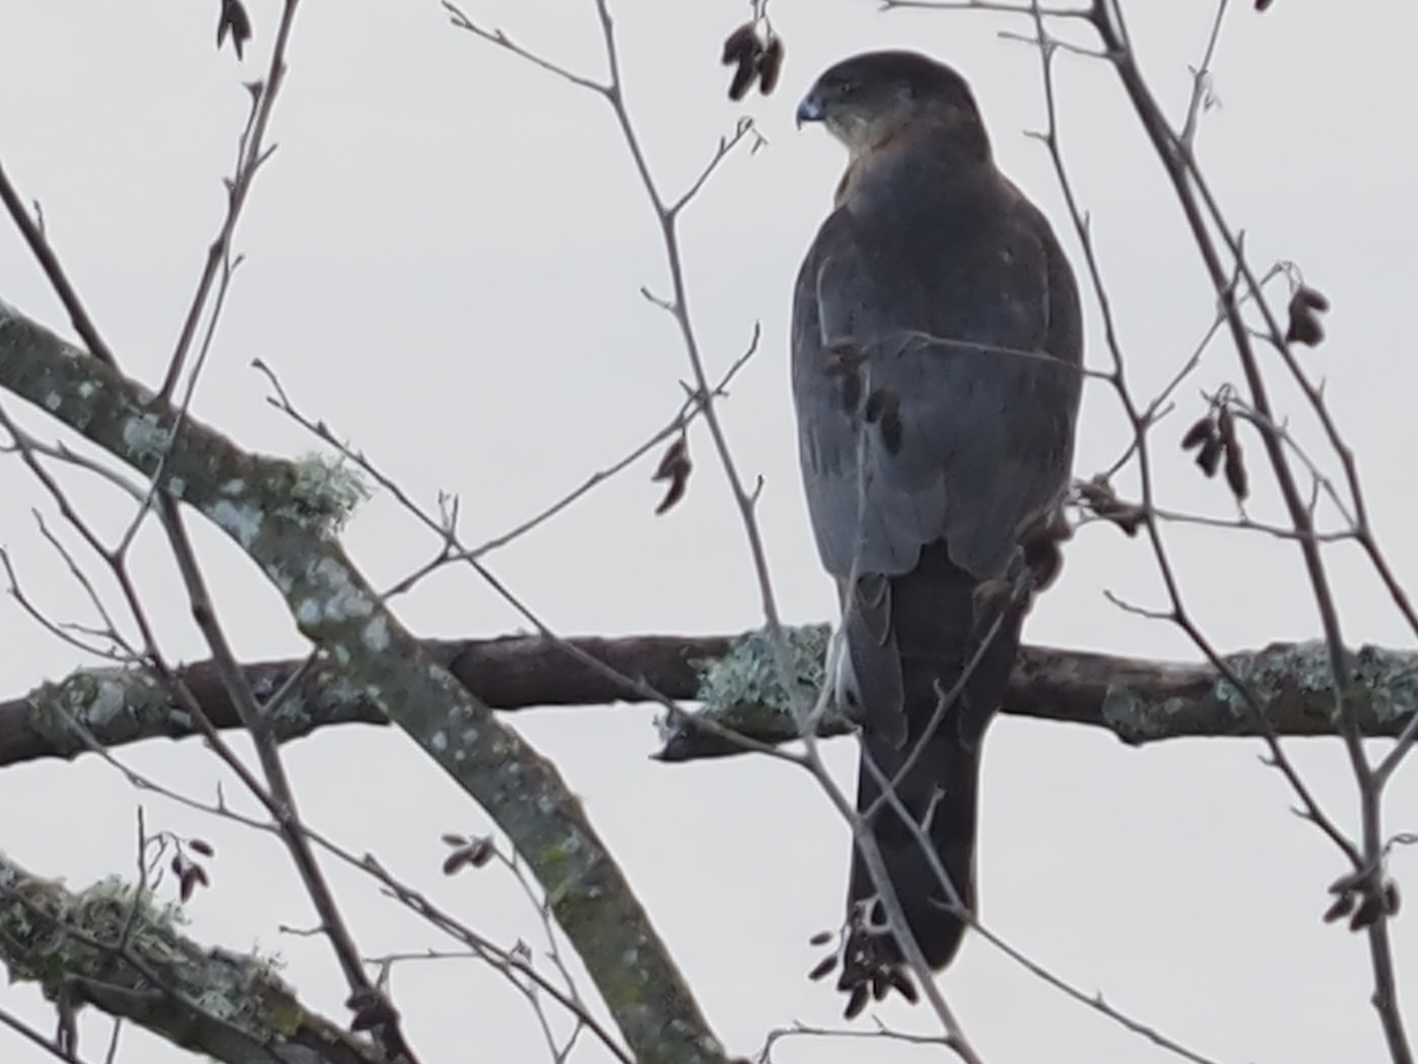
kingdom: Animalia
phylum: Chordata
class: Aves
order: Accipitriformes
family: Accipitridae
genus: Accipiter
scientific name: Accipiter cooperii
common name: Cooper's hawk
